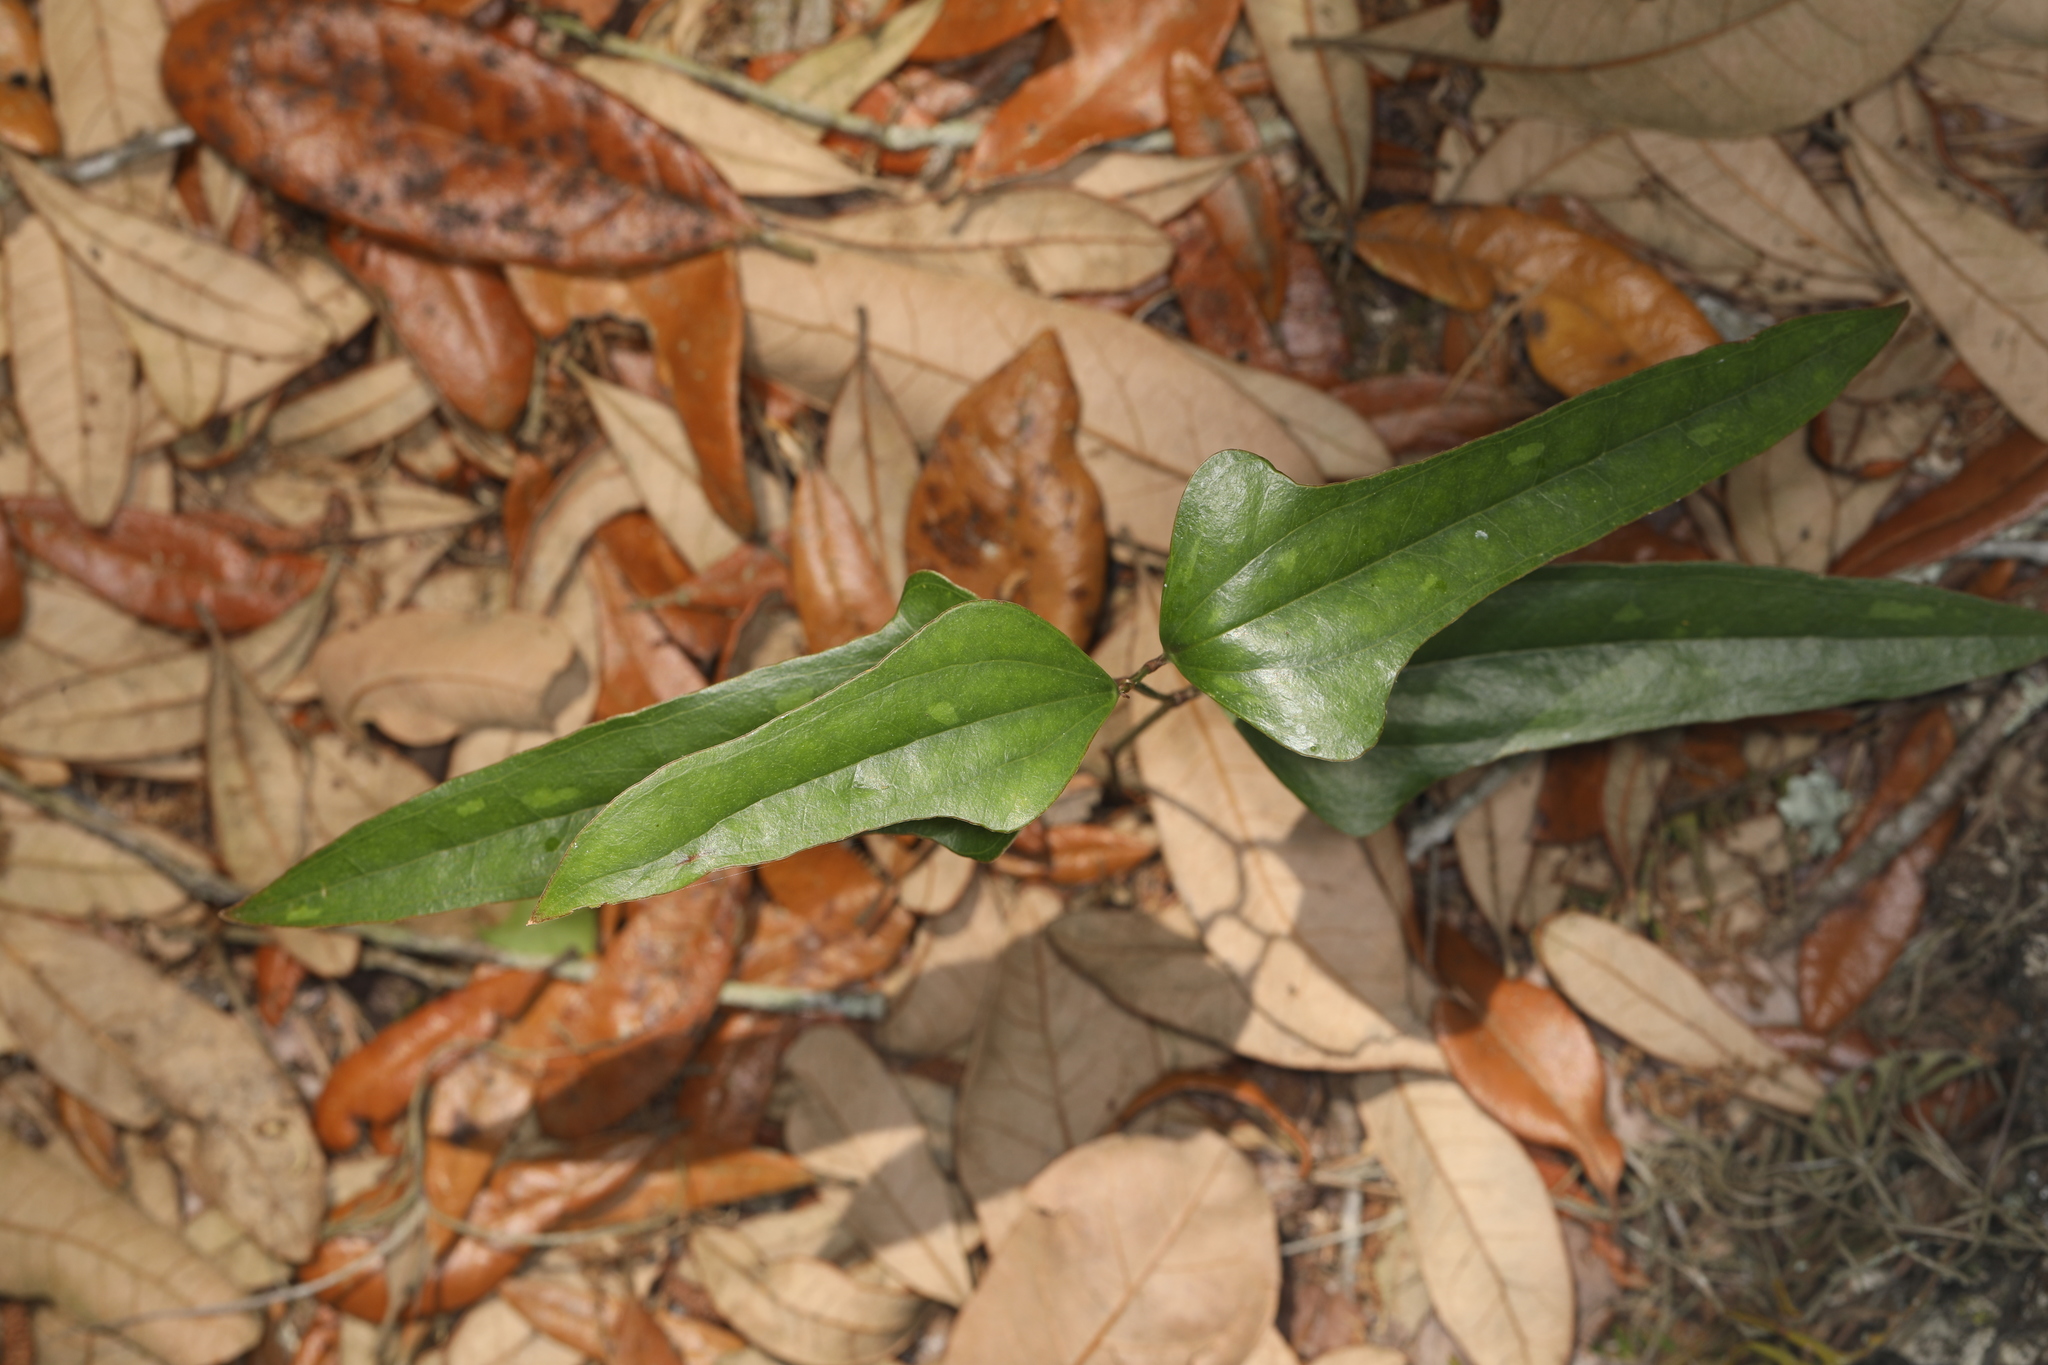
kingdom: Plantae
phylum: Tracheophyta
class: Liliopsida
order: Liliales
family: Smilacaceae
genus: Smilax
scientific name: Smilax auriculata
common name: Wild bamboo
